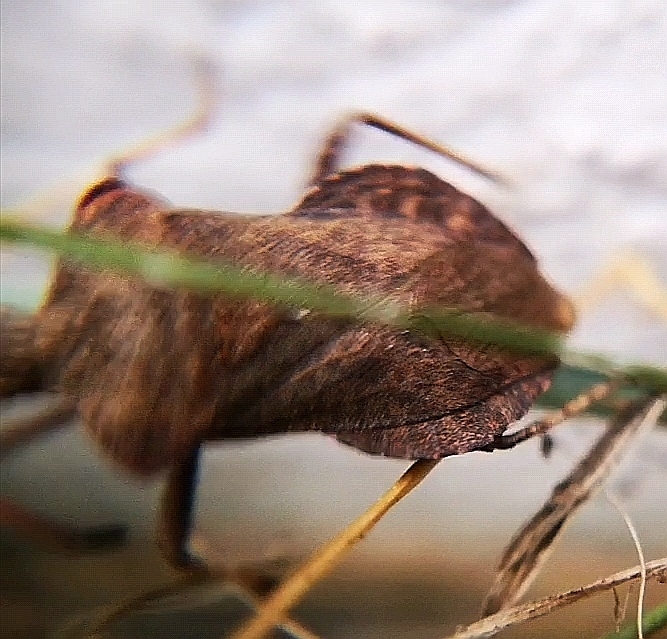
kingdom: Animalia
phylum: Arthropoda
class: Insecta
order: Hemiptera
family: Coreidae
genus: Coreus
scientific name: Coreus marginatus
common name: Dock bug
